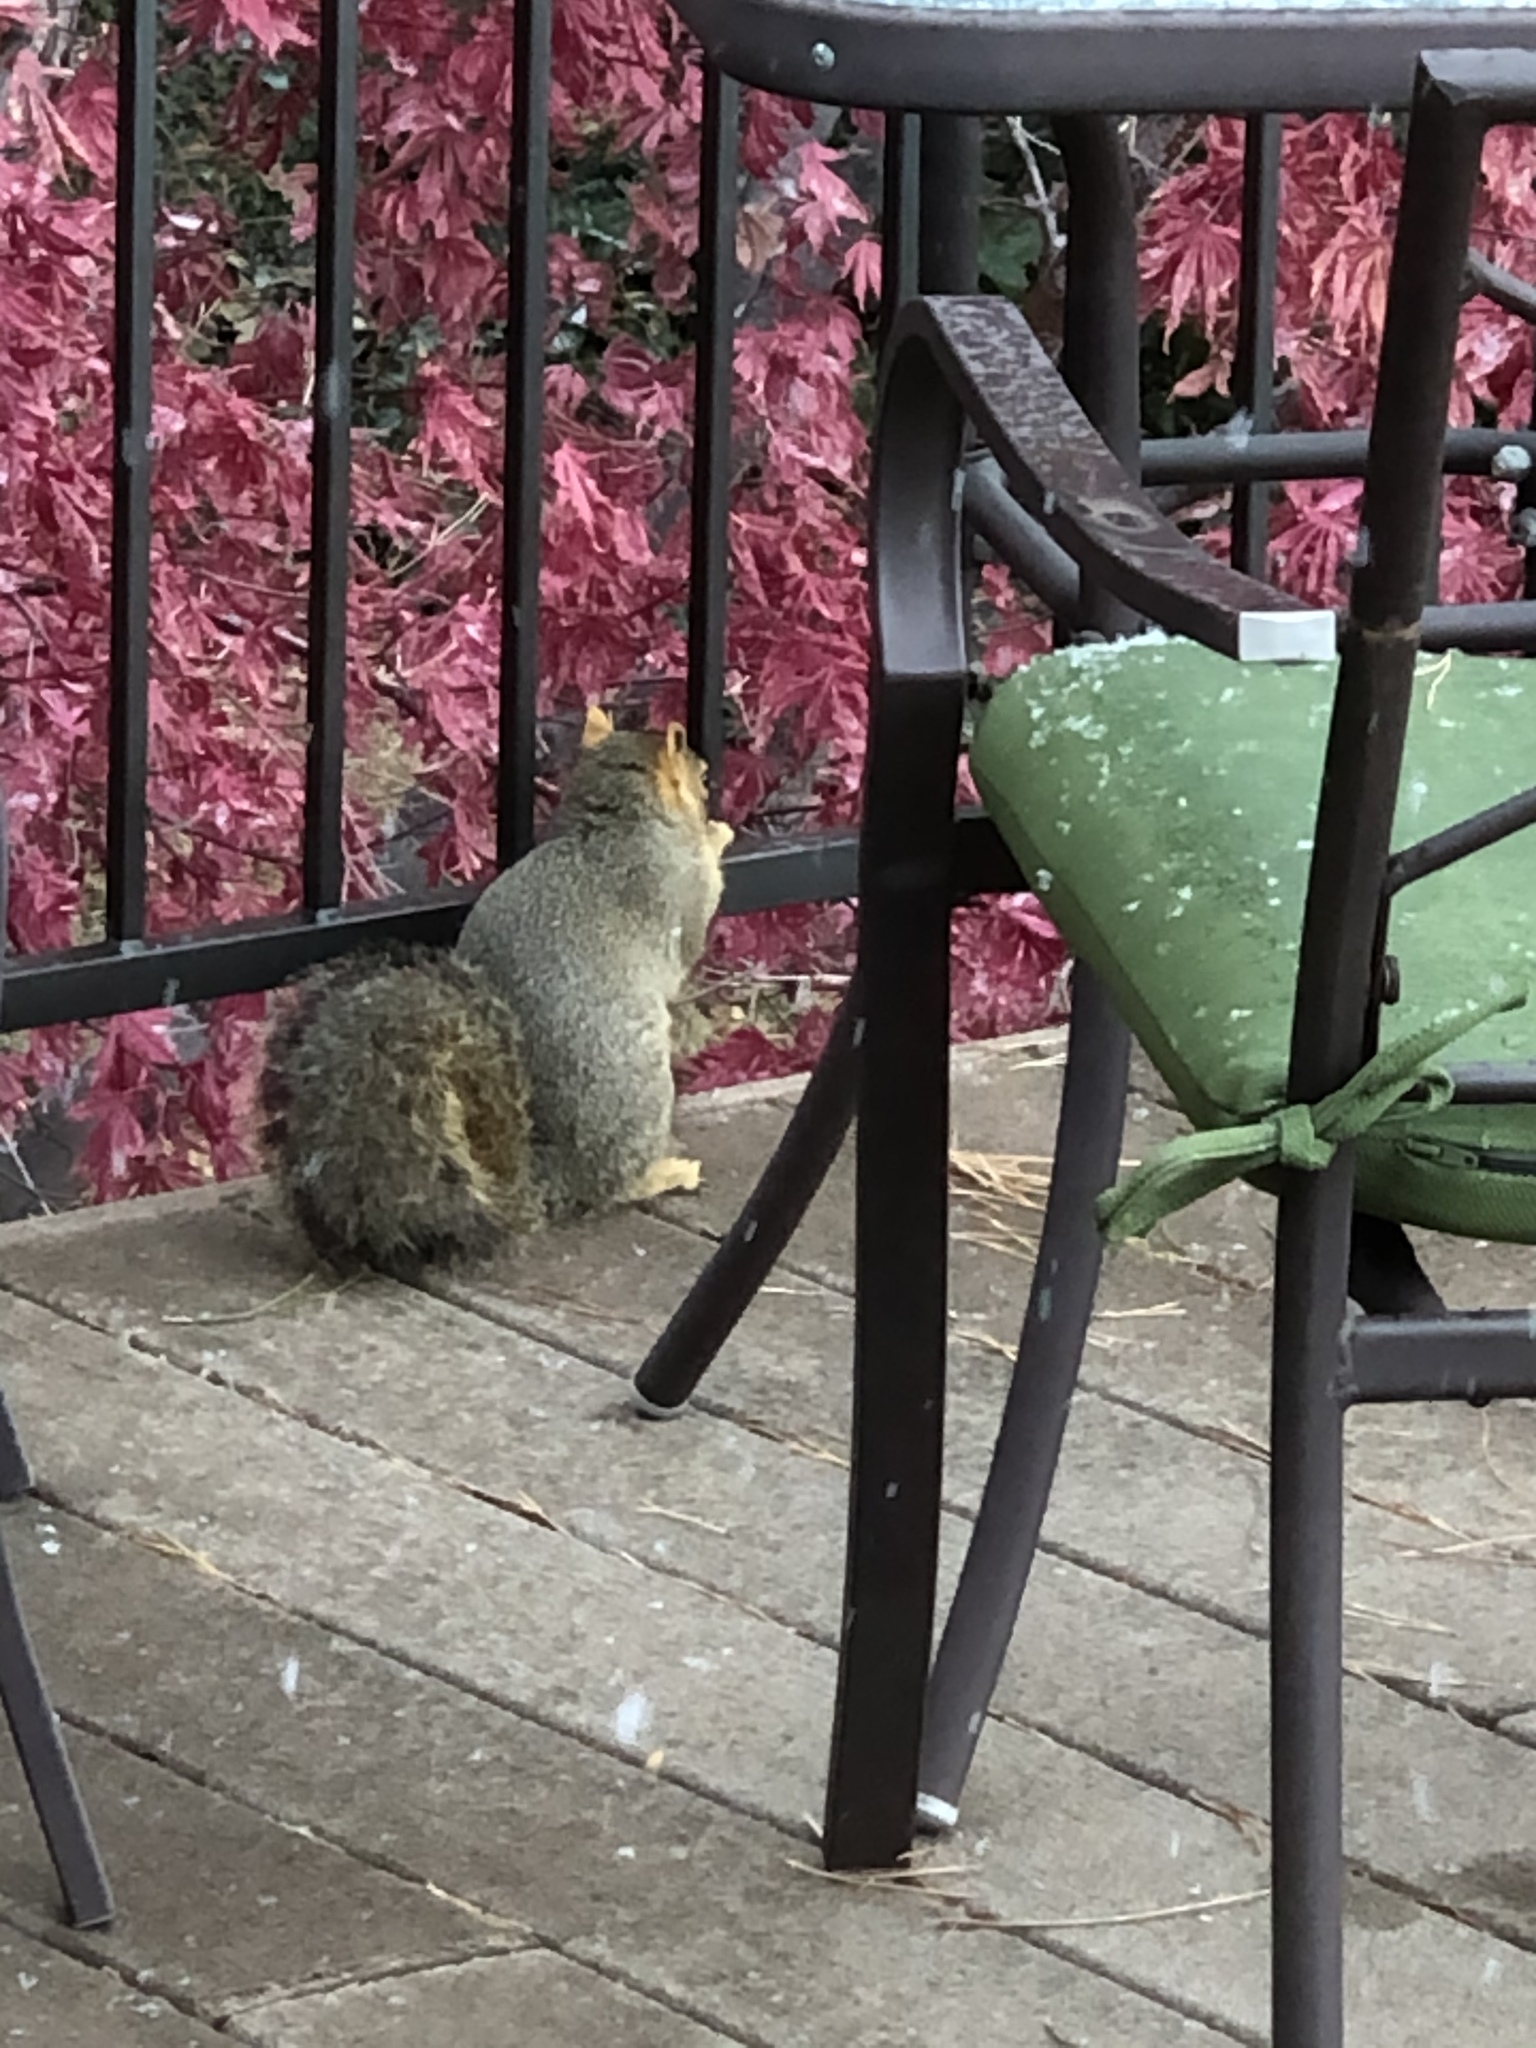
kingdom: Animalia
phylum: Chordata
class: Mammalia
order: Rodentia
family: Sciuridae
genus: Sciurus
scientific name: Sciurus niger
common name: Fox squirrel
